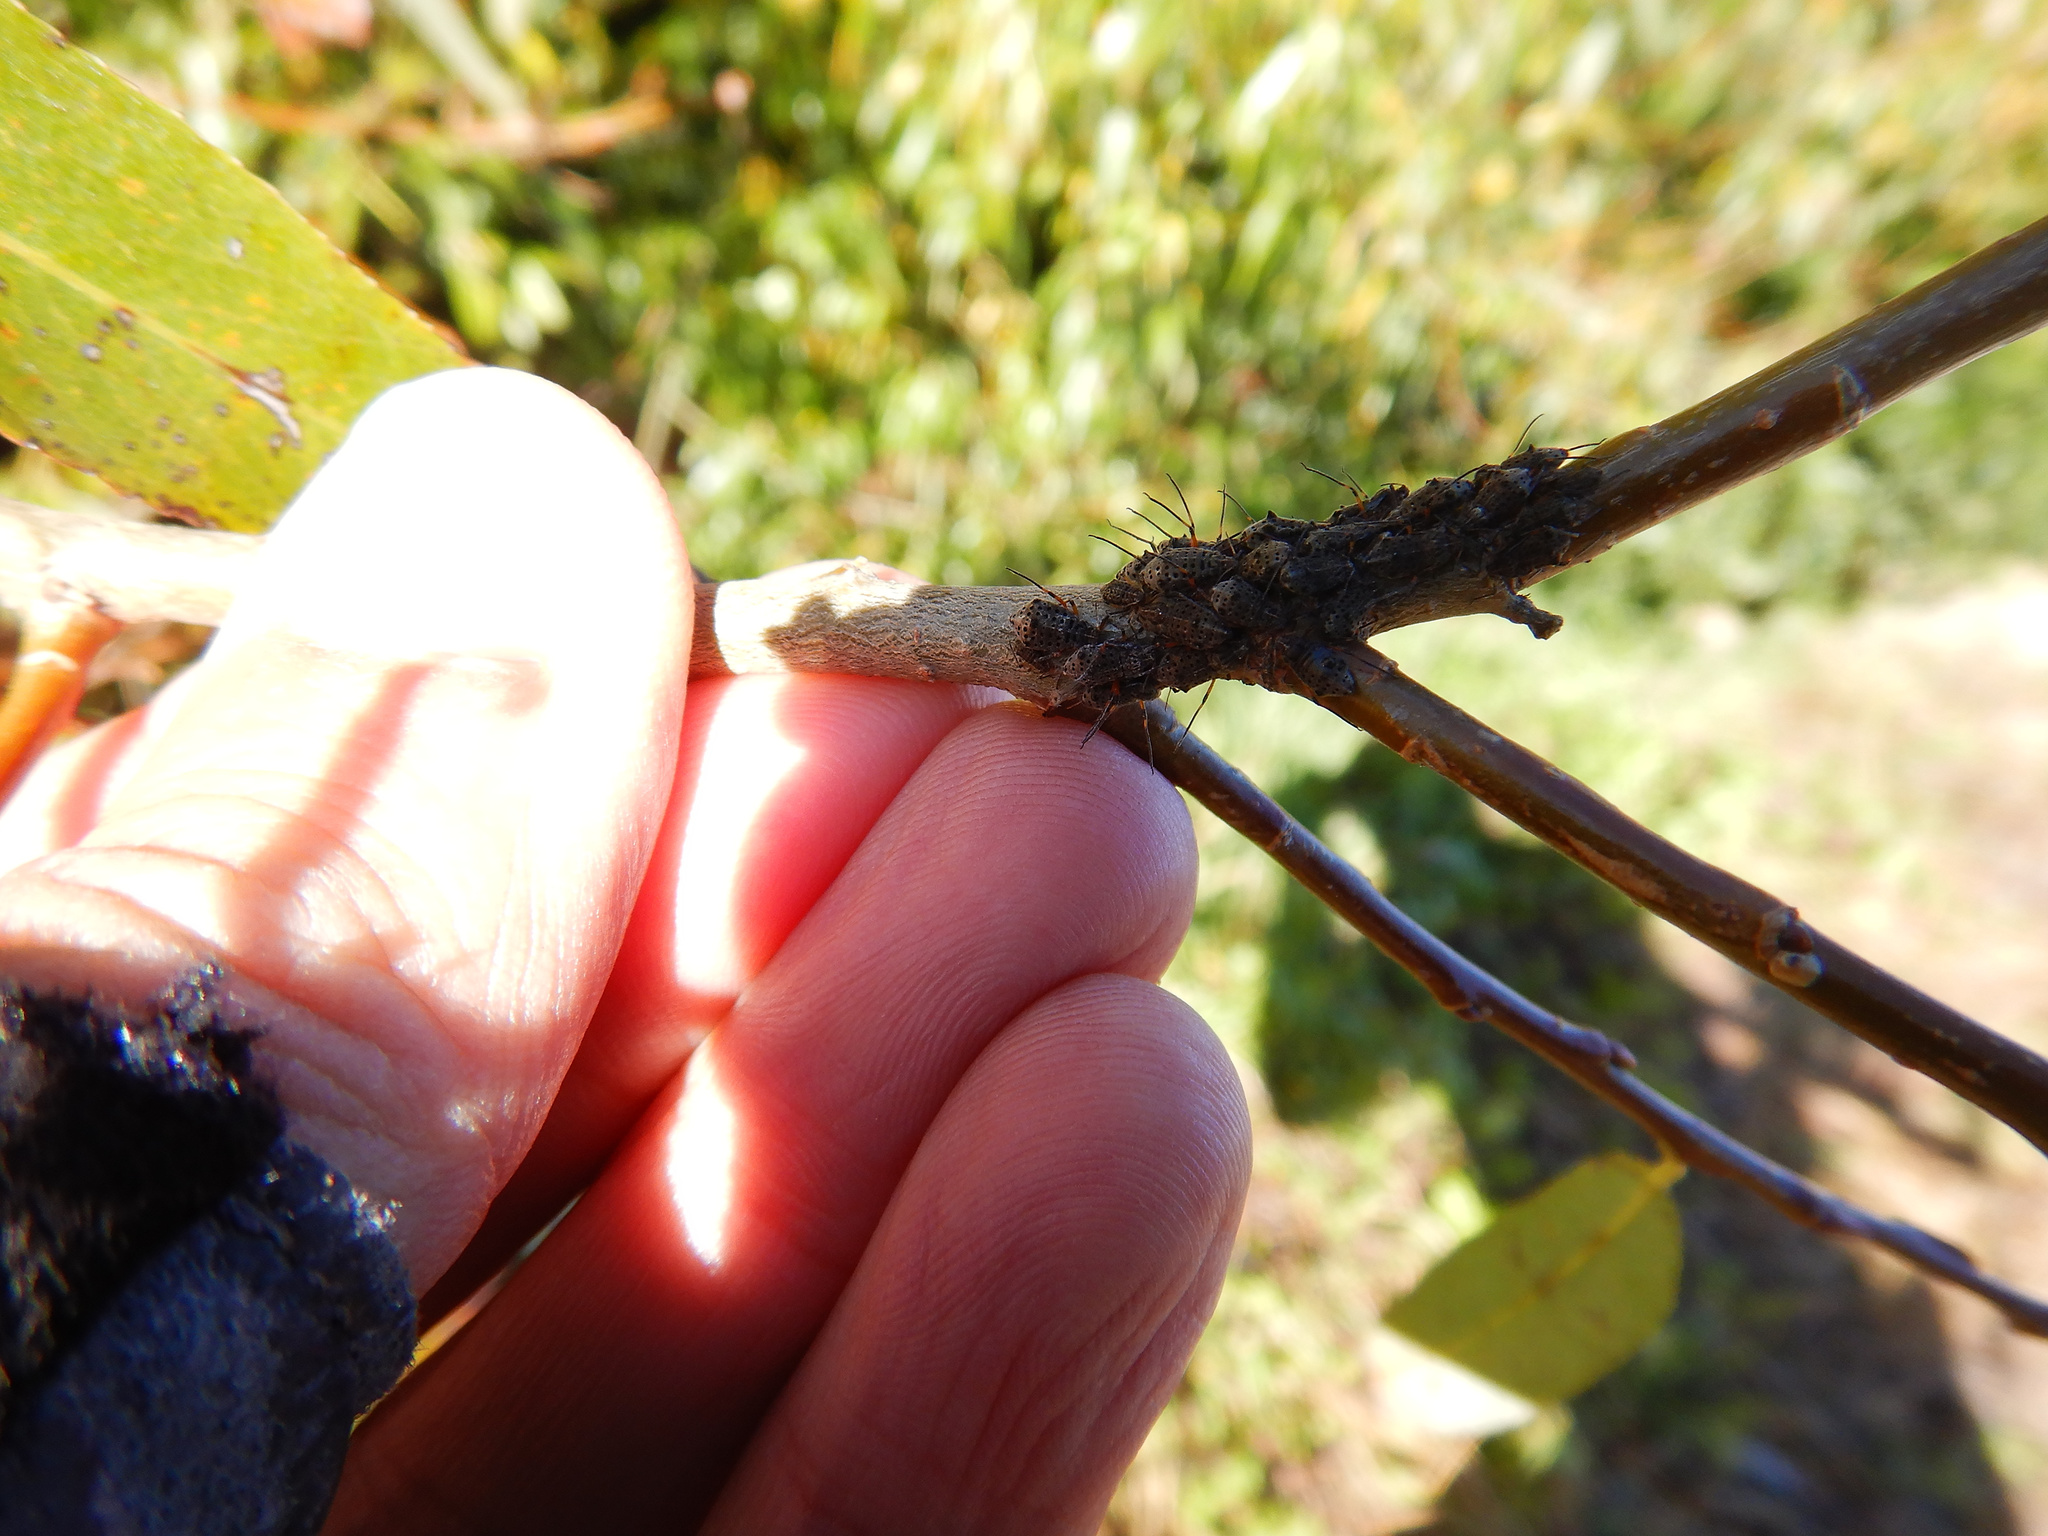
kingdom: Animalia
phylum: Arthropoda
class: Insecta
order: Hemiptera
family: Aphididae
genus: Tuberolachnus
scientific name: Tuberolachnus salignus
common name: Giant willow aphid
